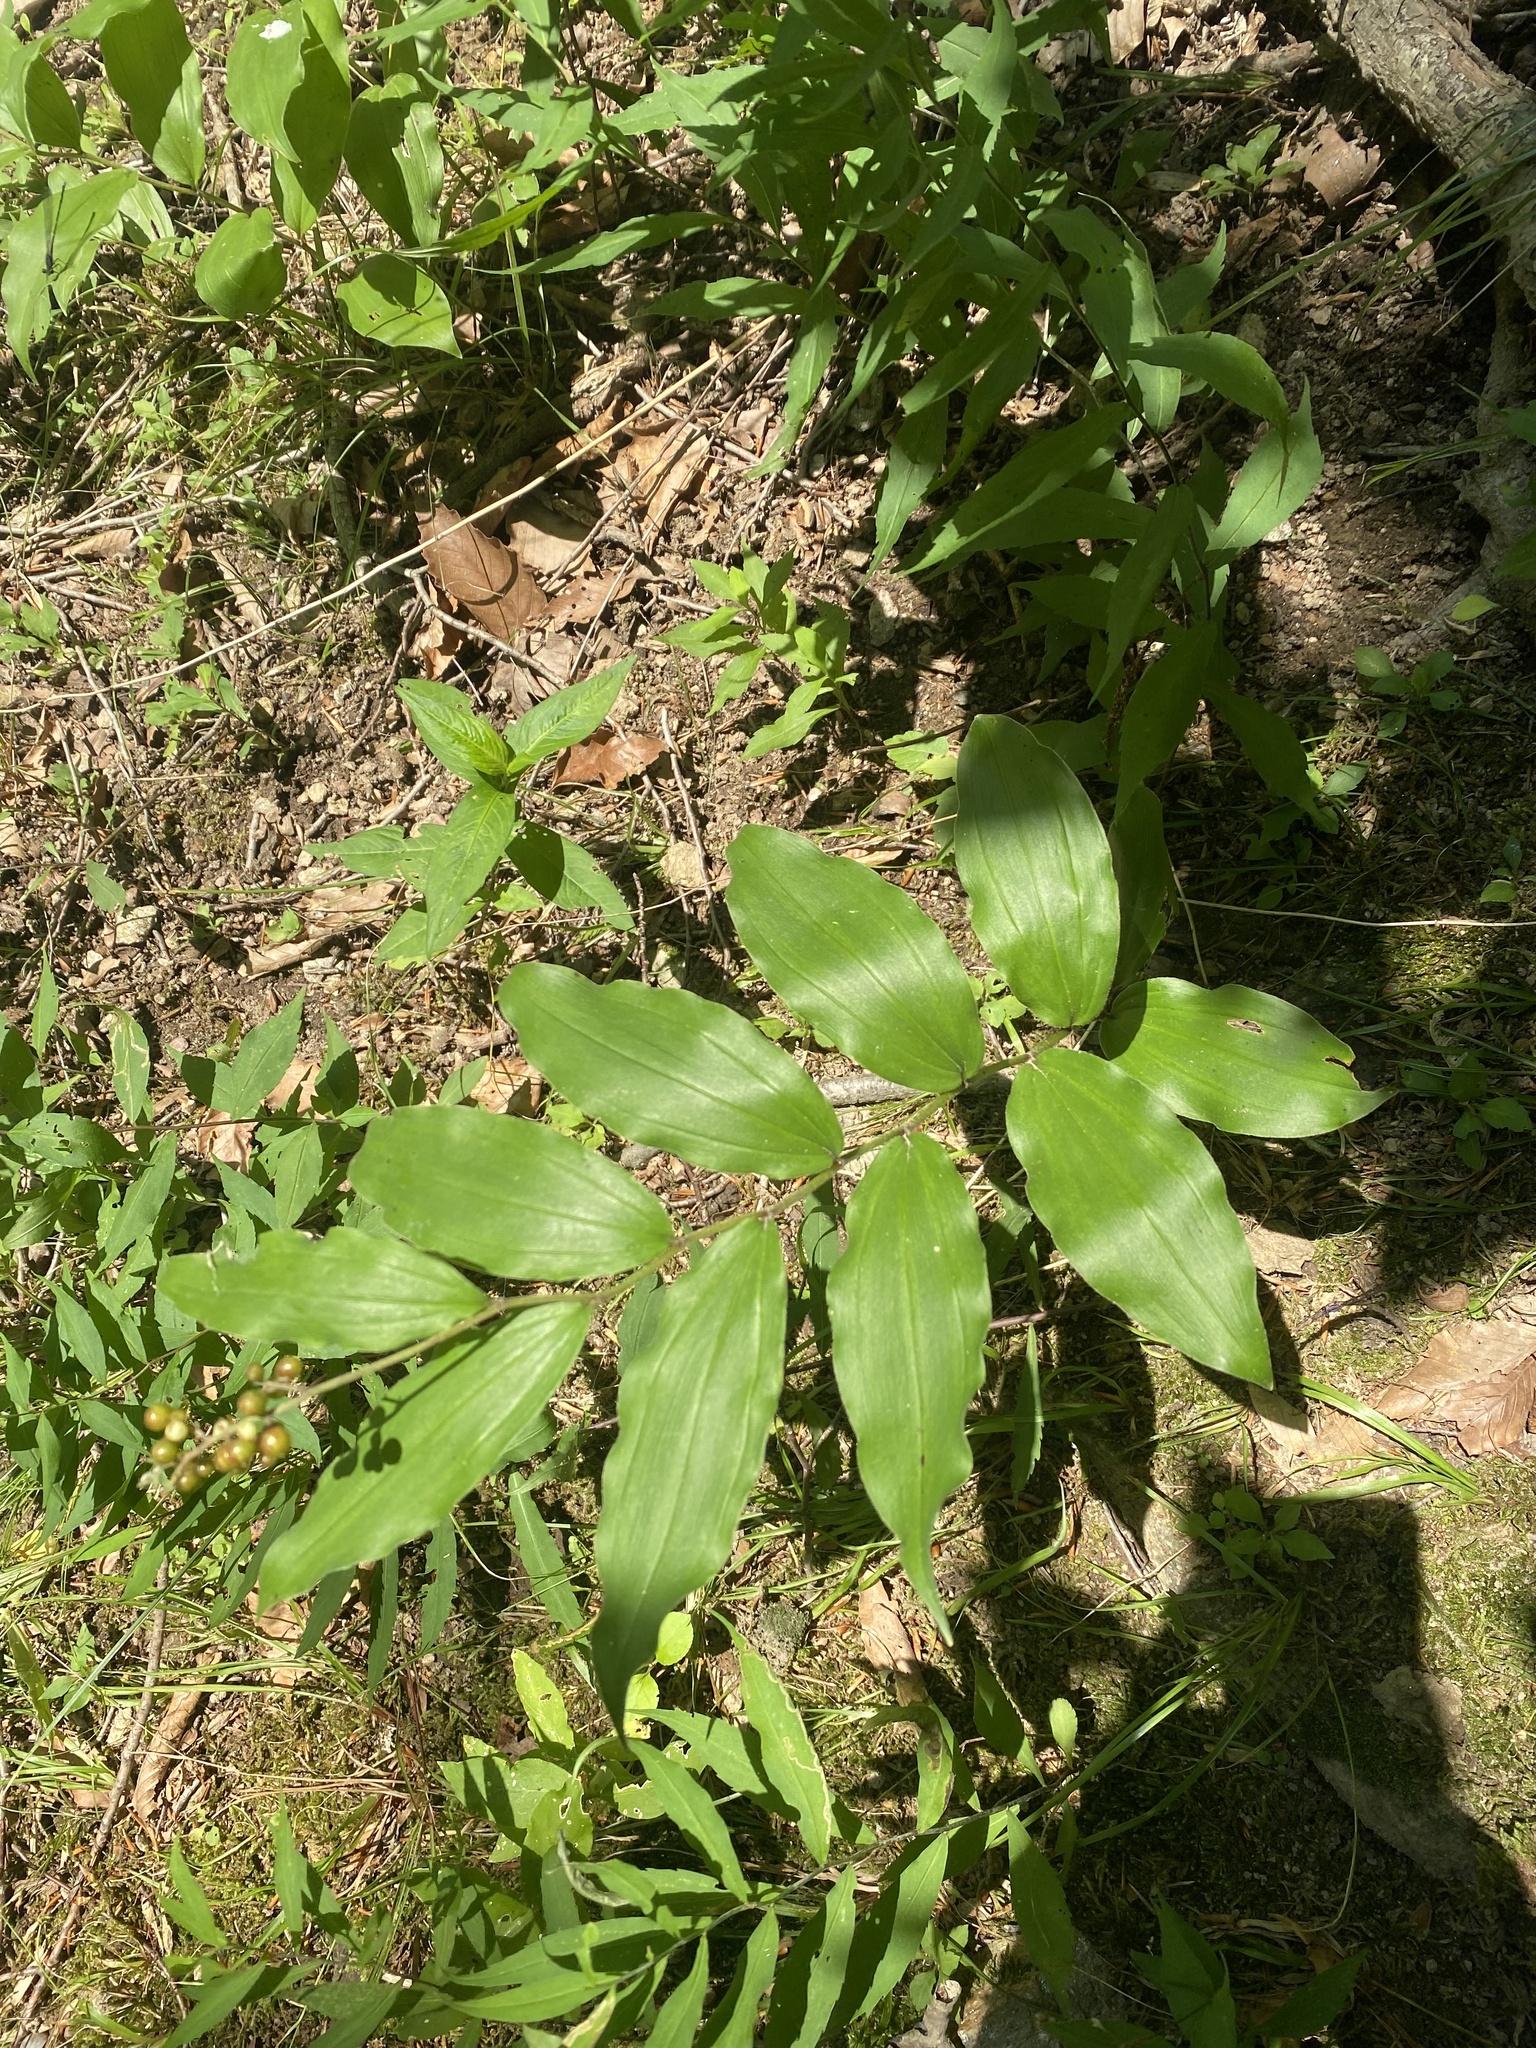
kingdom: Plantae
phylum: Tracheophyta
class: Liliopsida
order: Asparagales
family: Asparagaceae
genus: Maianthemum
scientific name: Maianthemum racemosum
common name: False spikenard
